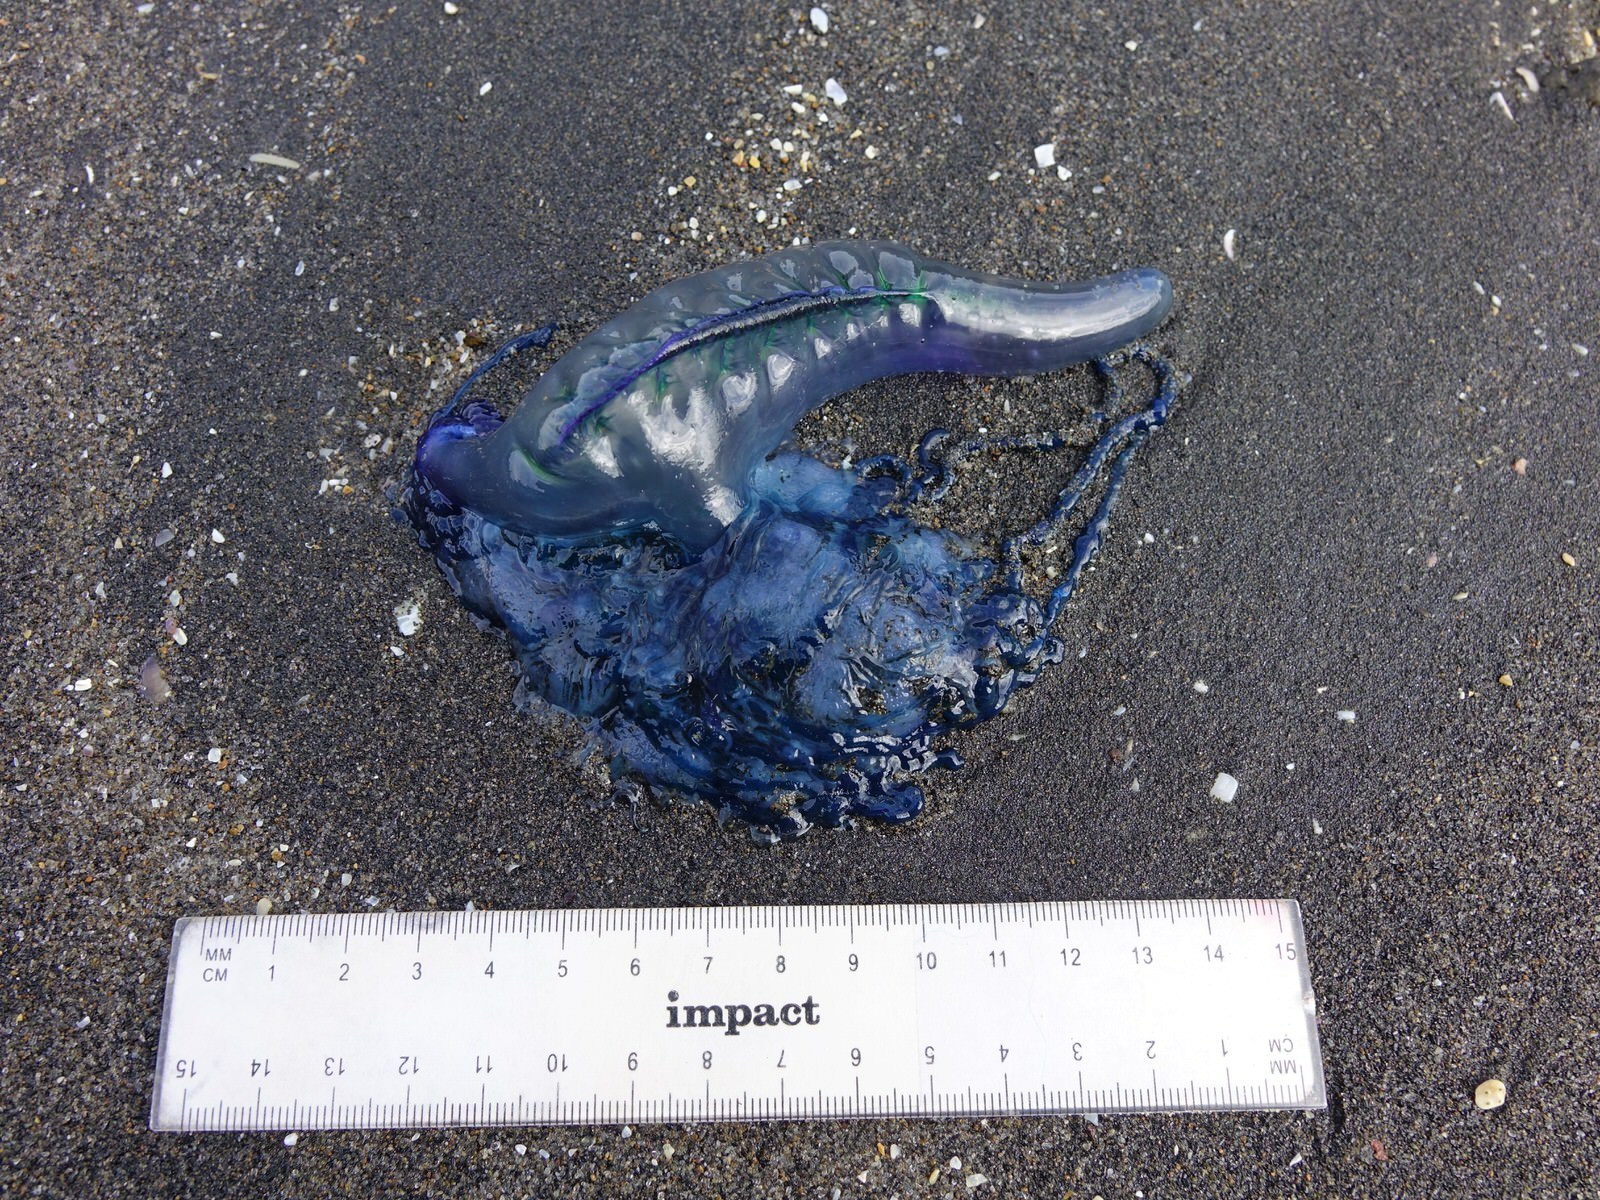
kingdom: Animalia
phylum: Cnidaria
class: Hydrozoa
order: Siphonophorae
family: Physaliidae
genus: Physalia
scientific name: Physalia physalis
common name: Portuguese man-of-war
